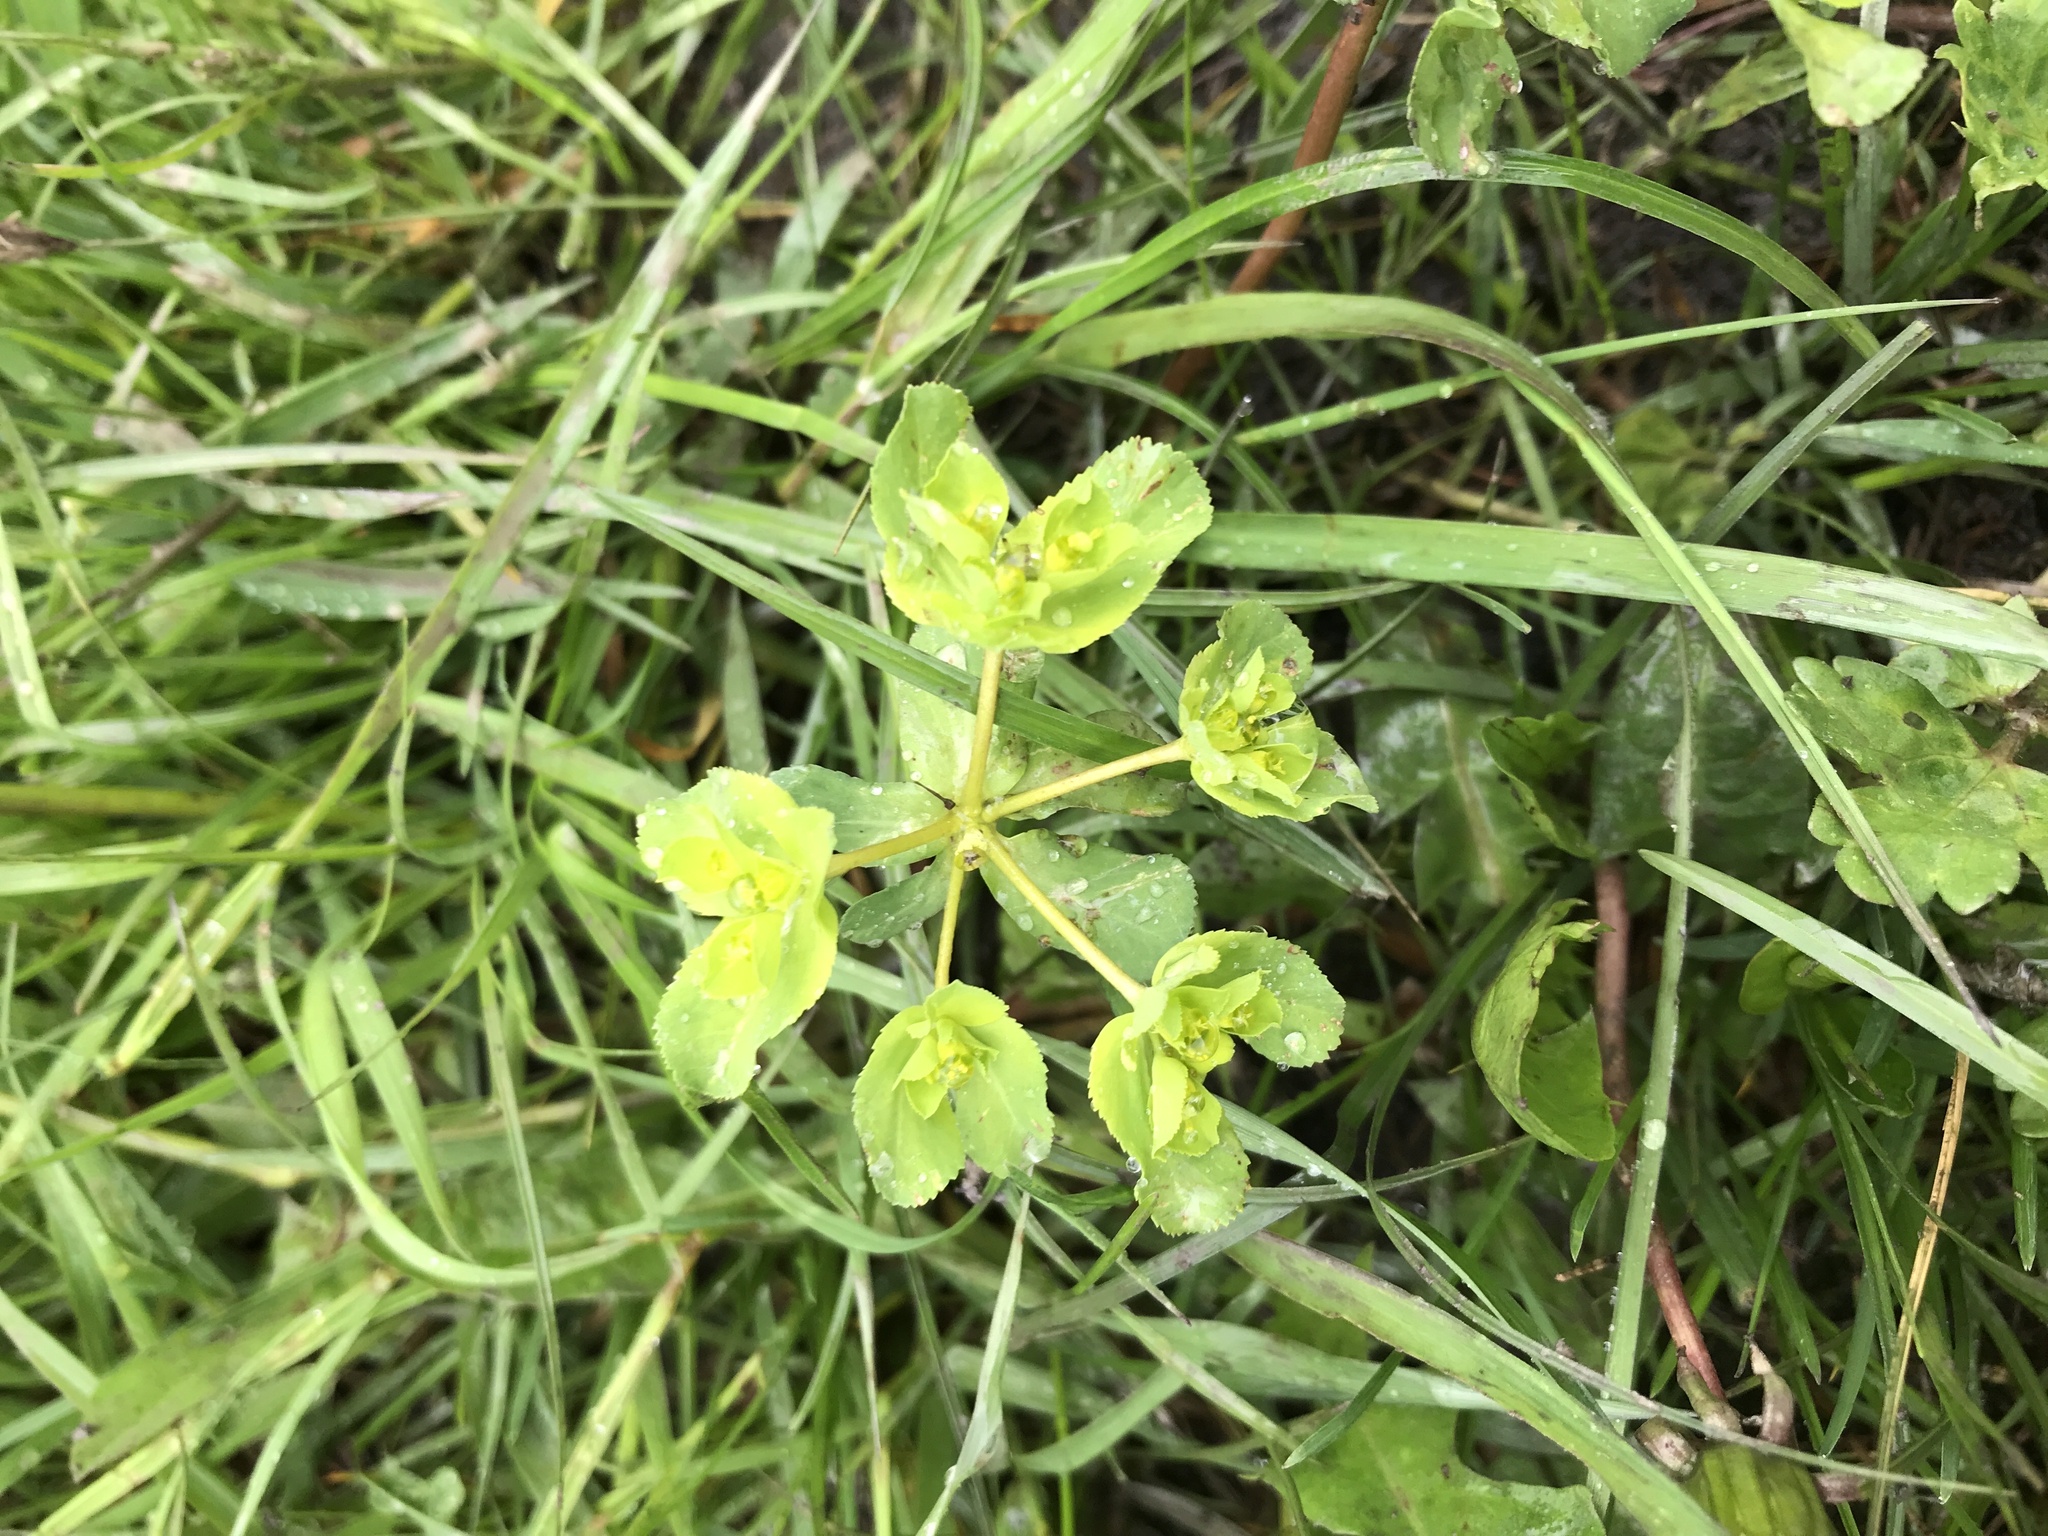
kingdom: Plantae
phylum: Tracheophyta
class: Magnoliopsida
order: Malpighiales
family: Euphorbiaceae
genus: Euphorbia
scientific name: Euphorbia helioscopia
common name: Sun spurge
